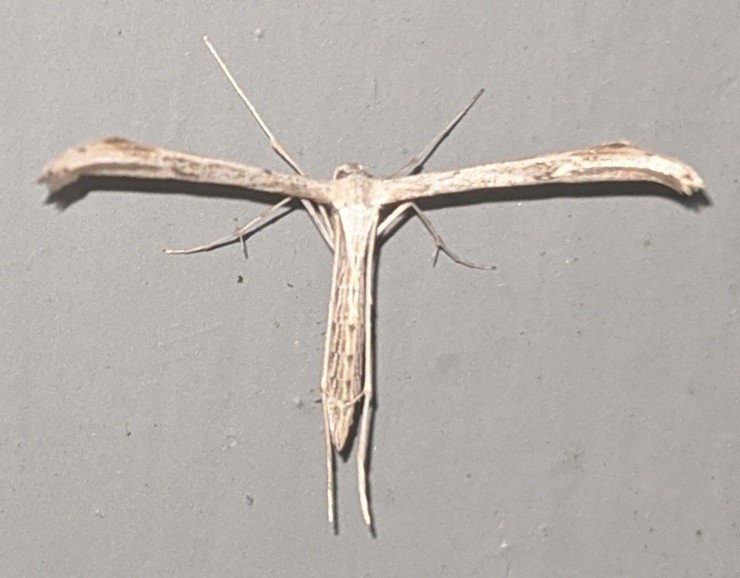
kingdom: Animalia
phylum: Arthropoda
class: Insecta
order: Lepidoptera
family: Pterophoridae
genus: Emmelina
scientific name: Emmelina monodactyla
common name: Common plume
